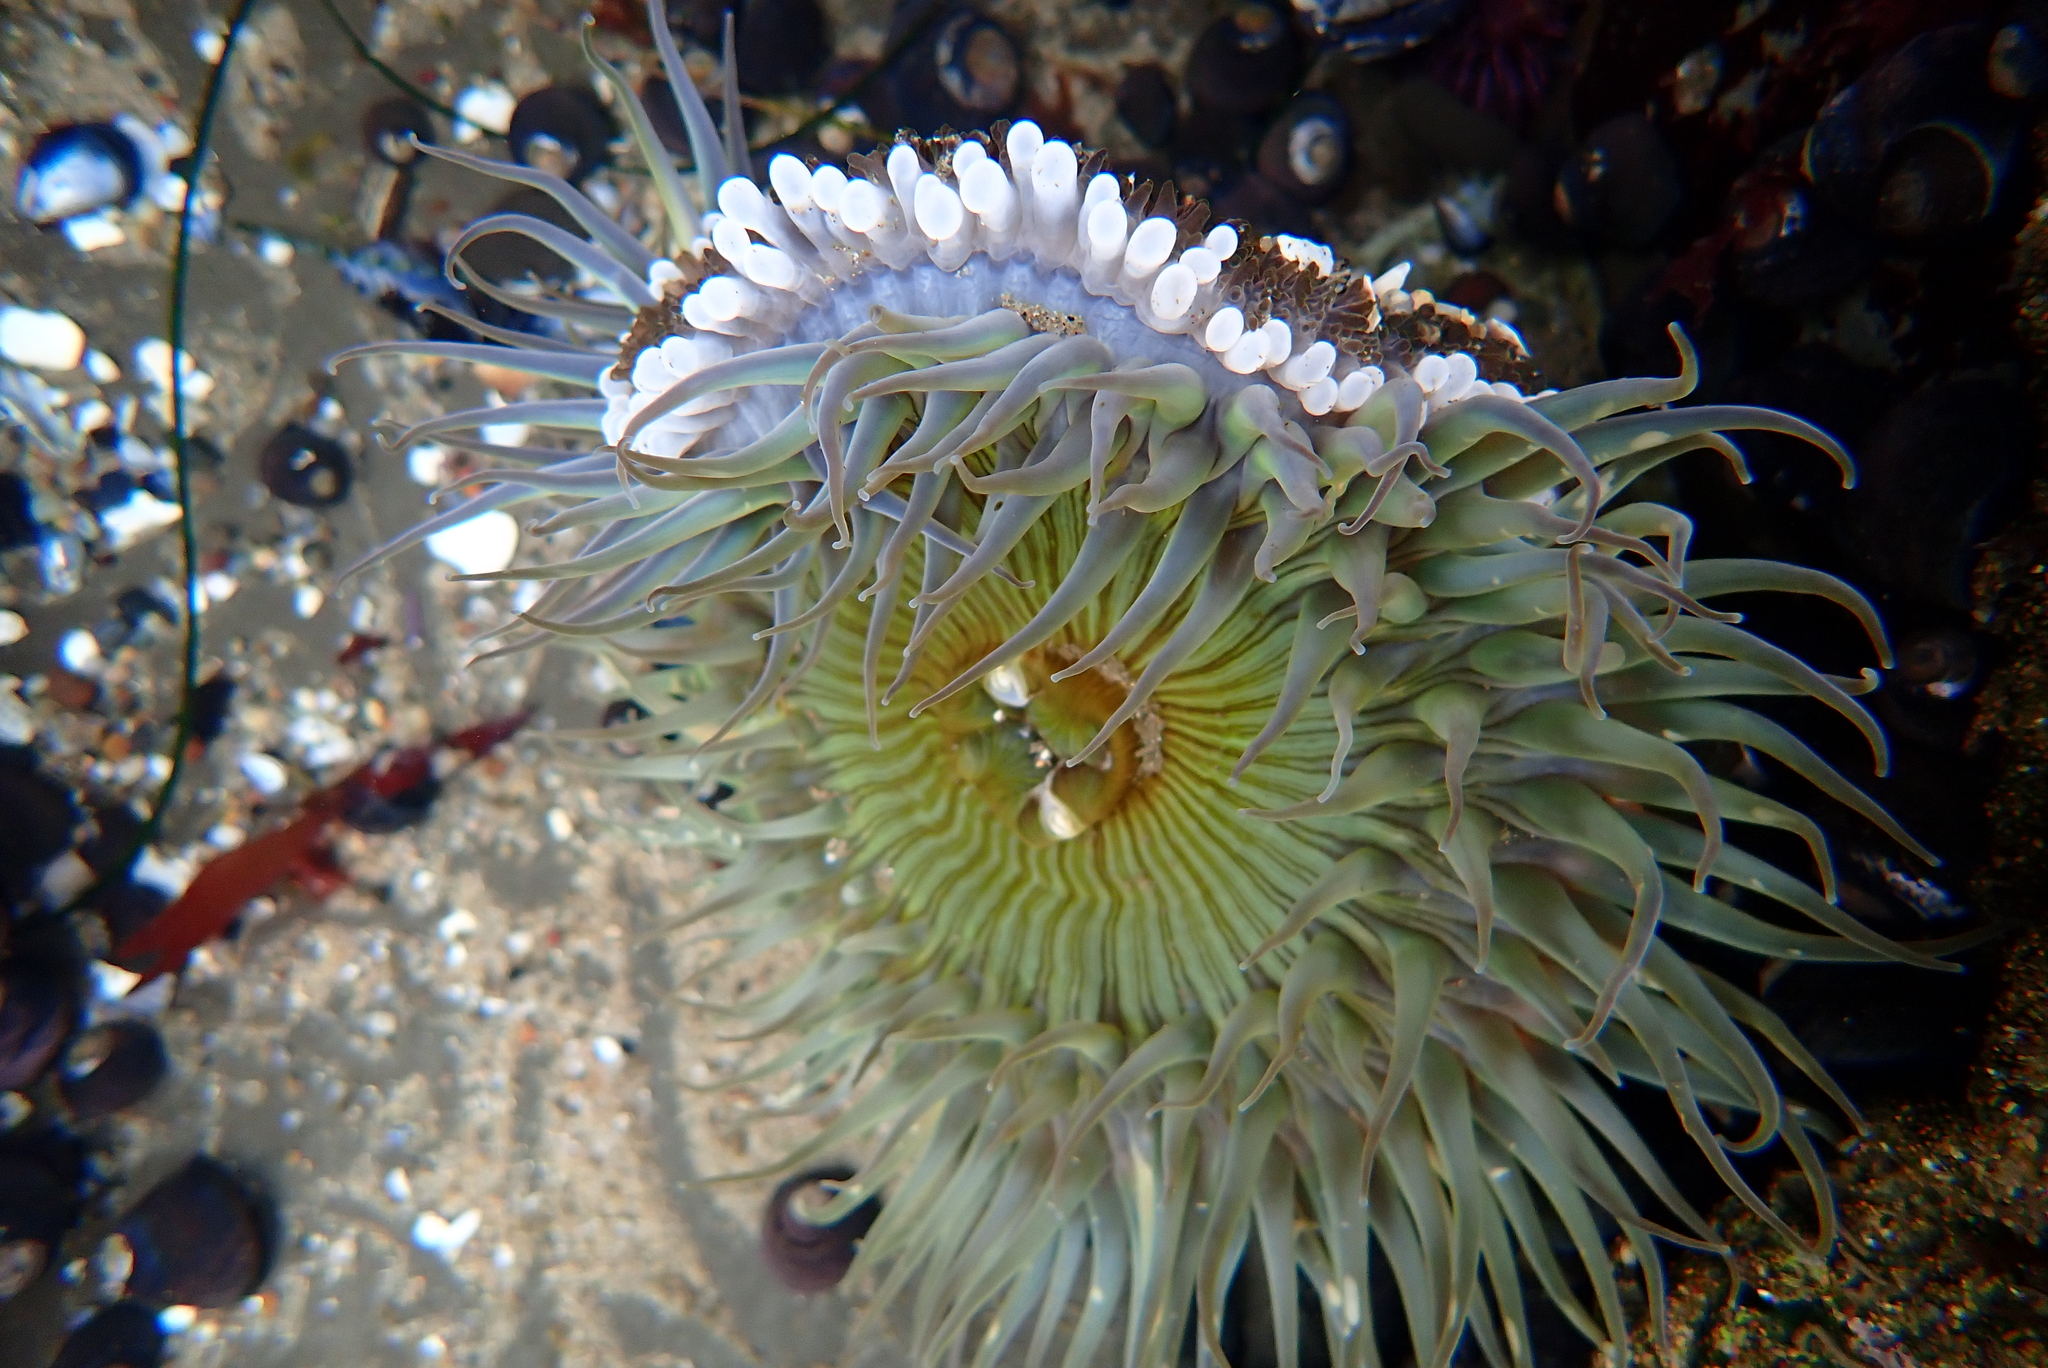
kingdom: Animalia
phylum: Cnidaria
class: Anthozoa
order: Actiniaria
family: Actiniidae
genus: Anthopleura
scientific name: Anthopleura sola
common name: Sun anemone
